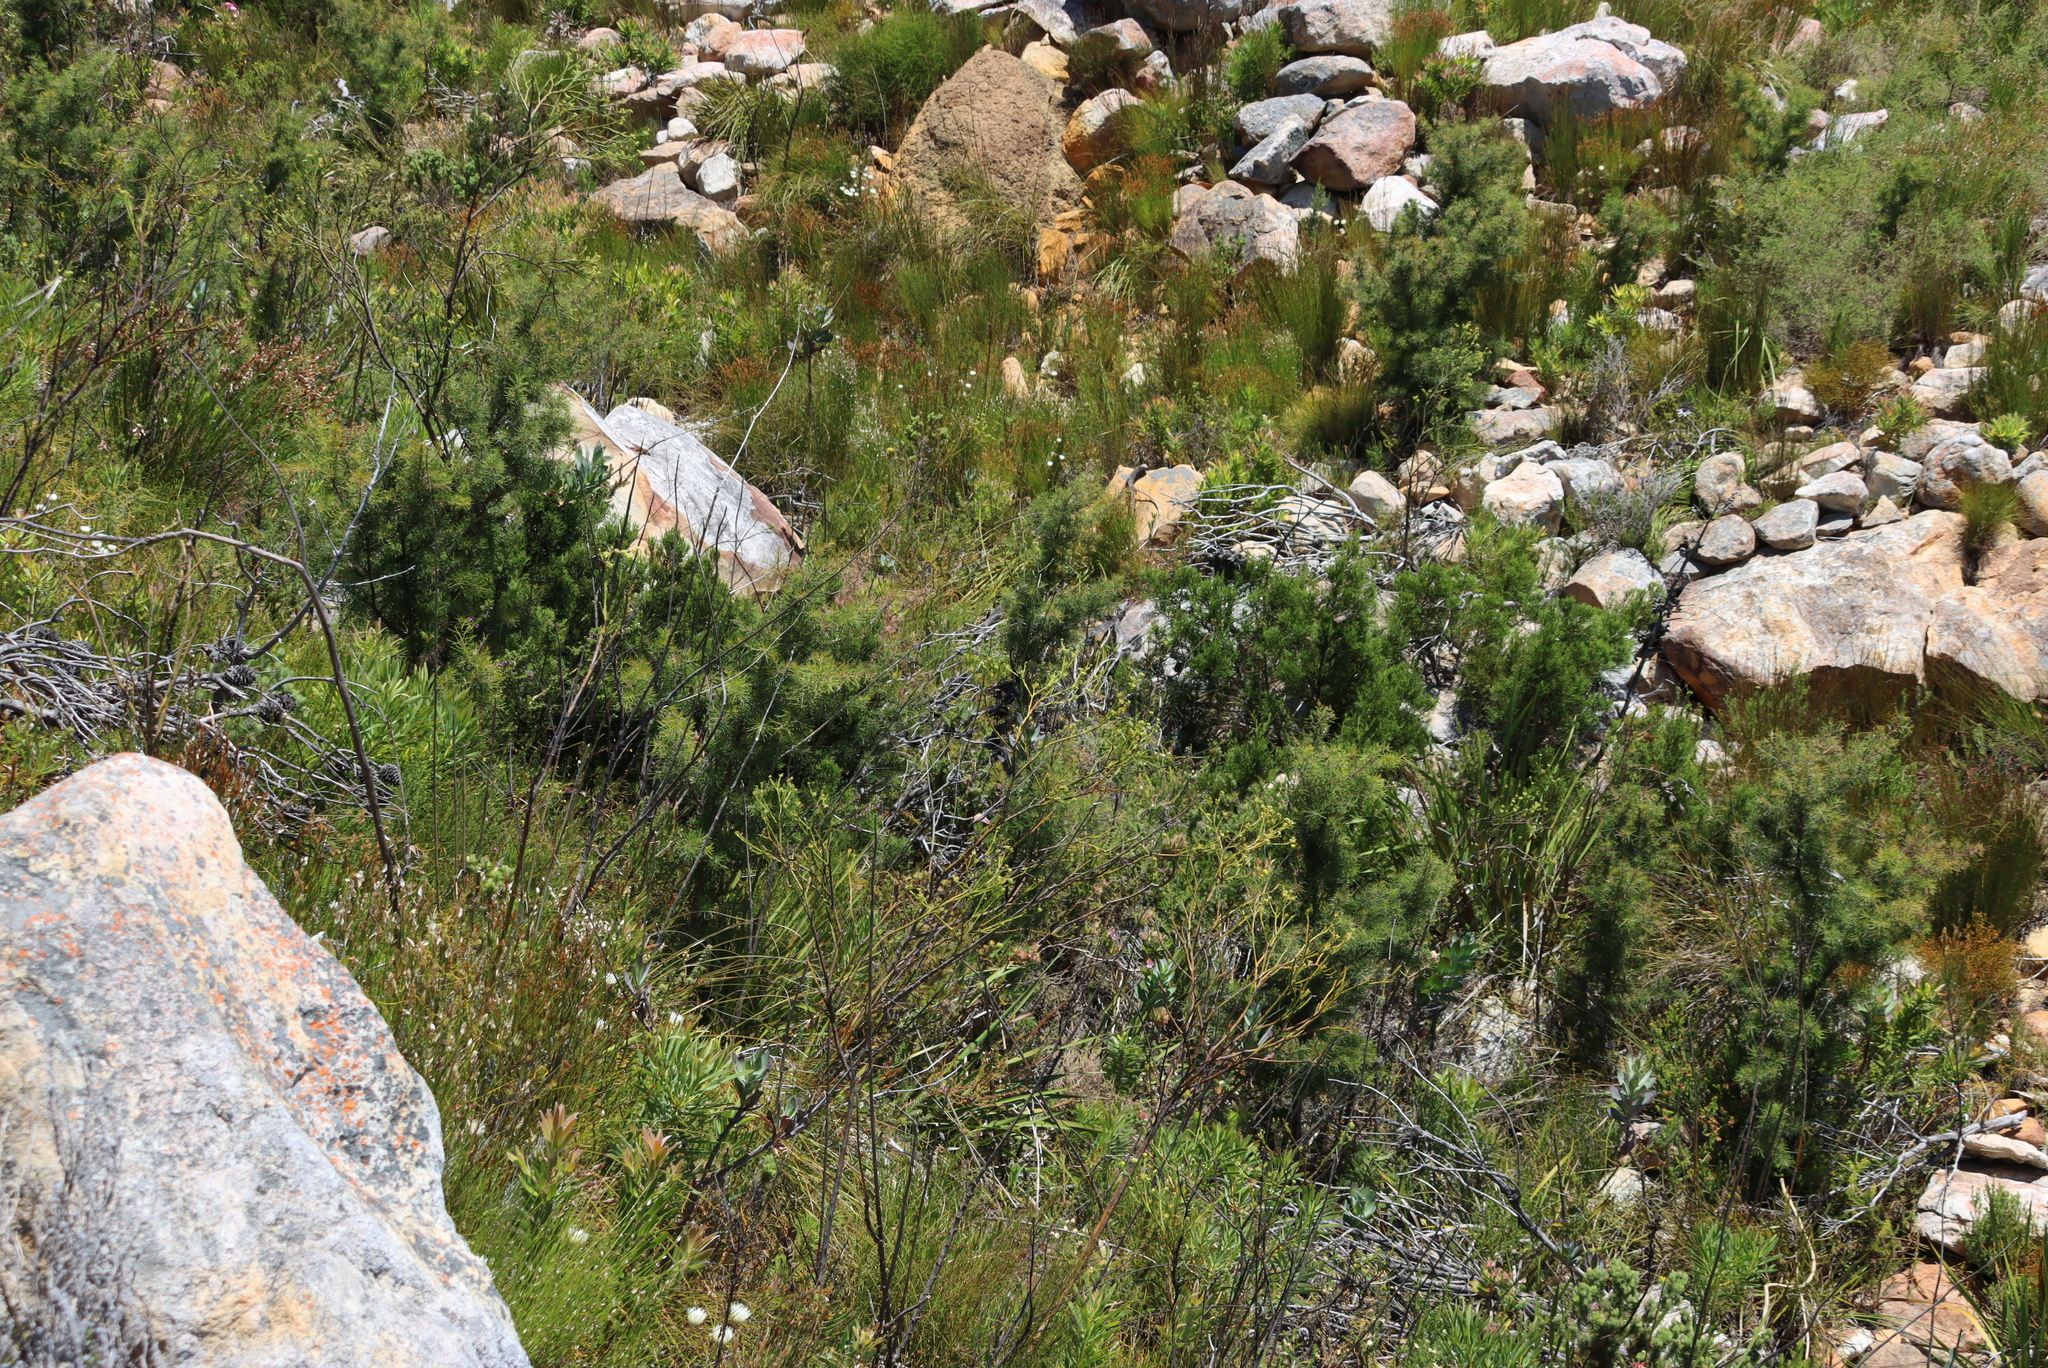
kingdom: Plantae
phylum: Tracheophyta
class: Pinopsida
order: Pinales
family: Cupressaceae
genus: Widdringtonia
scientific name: Widdringtonia nodiflora
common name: Cape cypress
